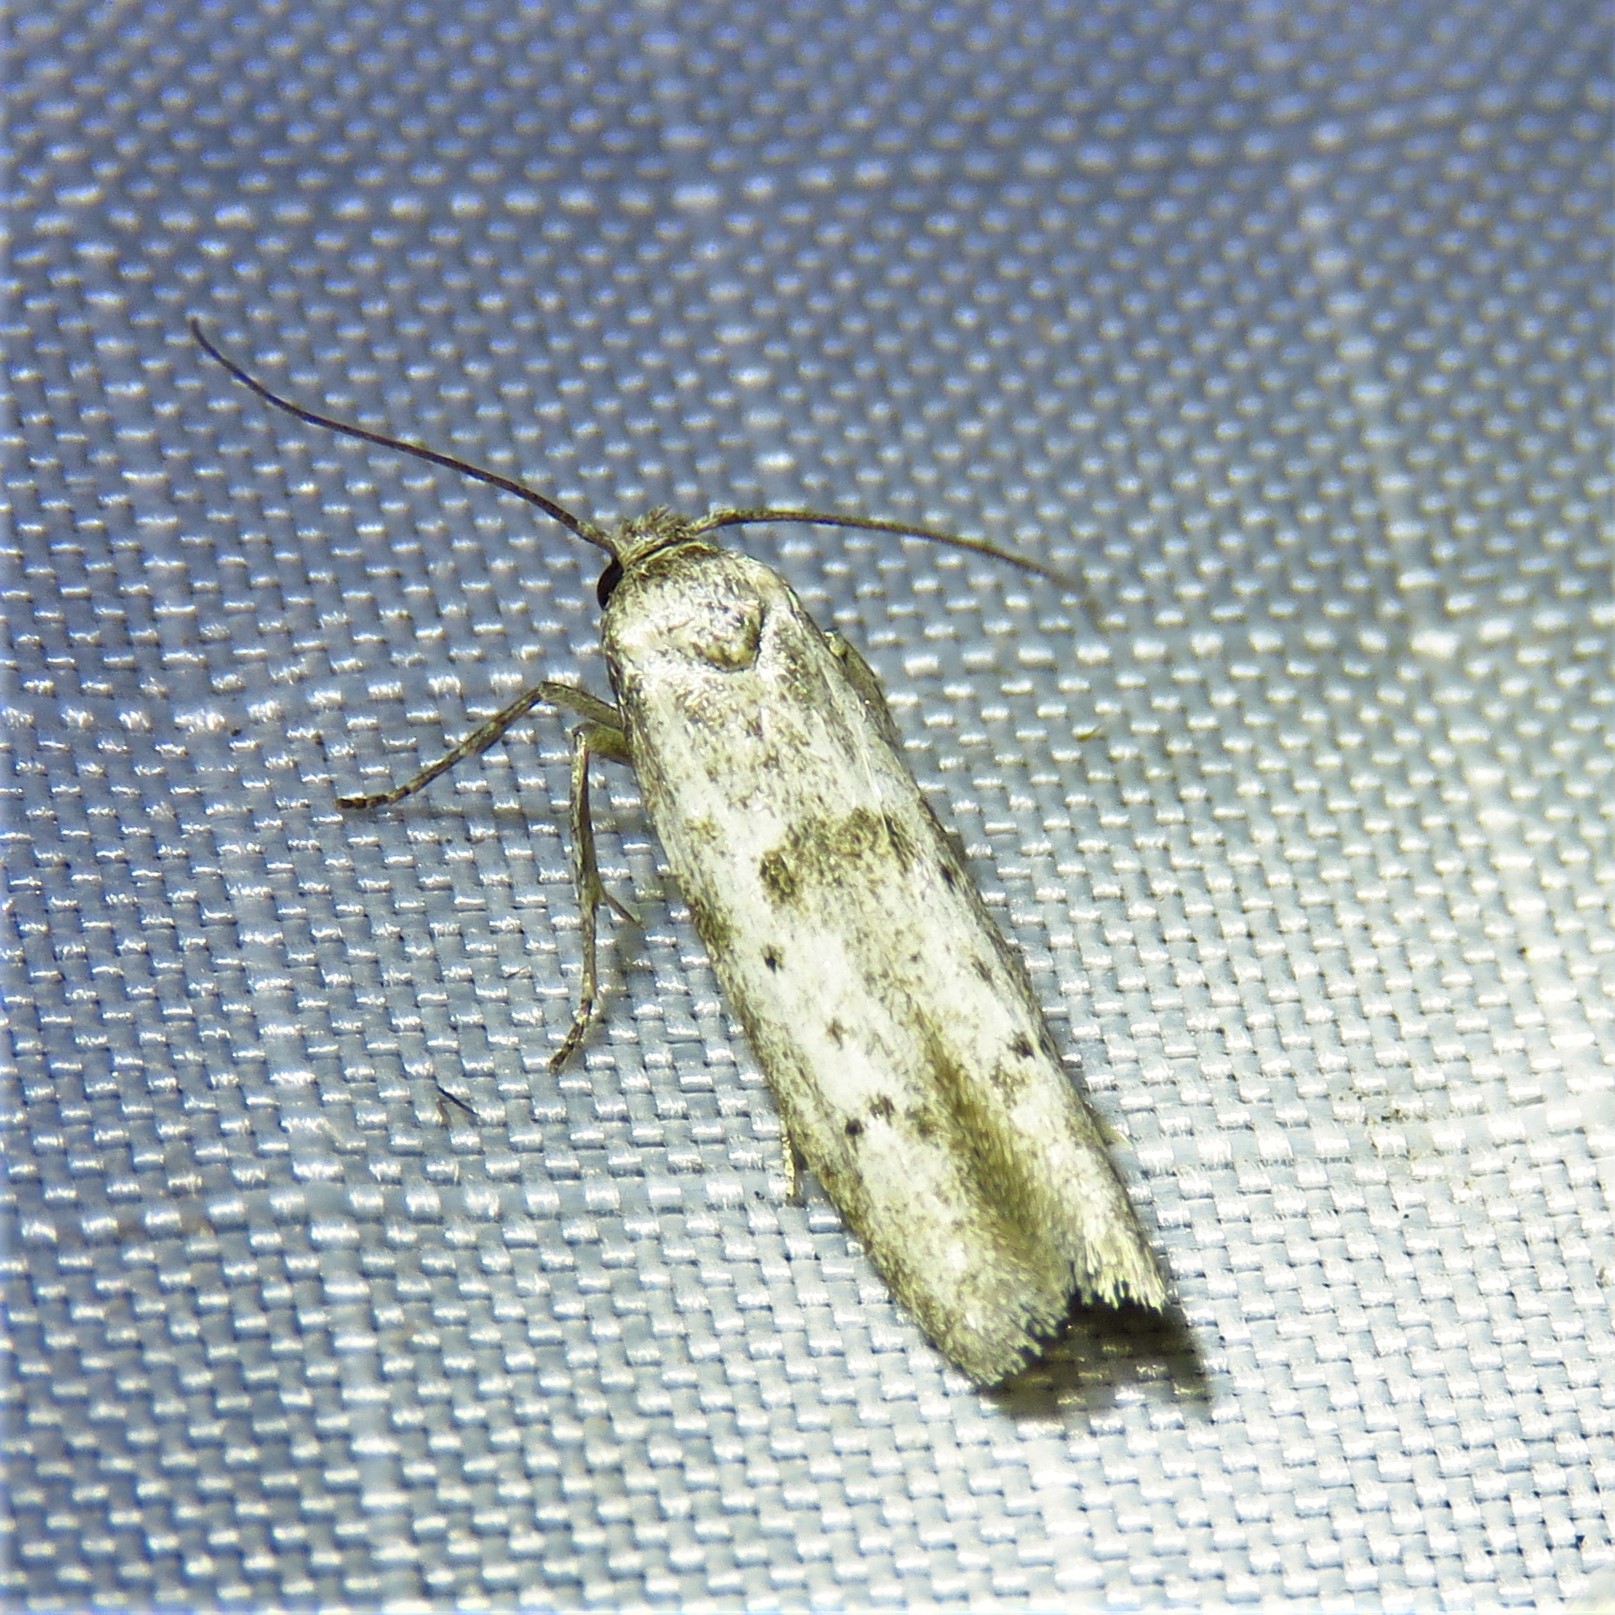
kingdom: Animalia
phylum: Arthropoda
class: Insecta
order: Lepidoptera
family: Blastobasidae
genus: Hypatopa
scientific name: Hypatopa punctiferella
